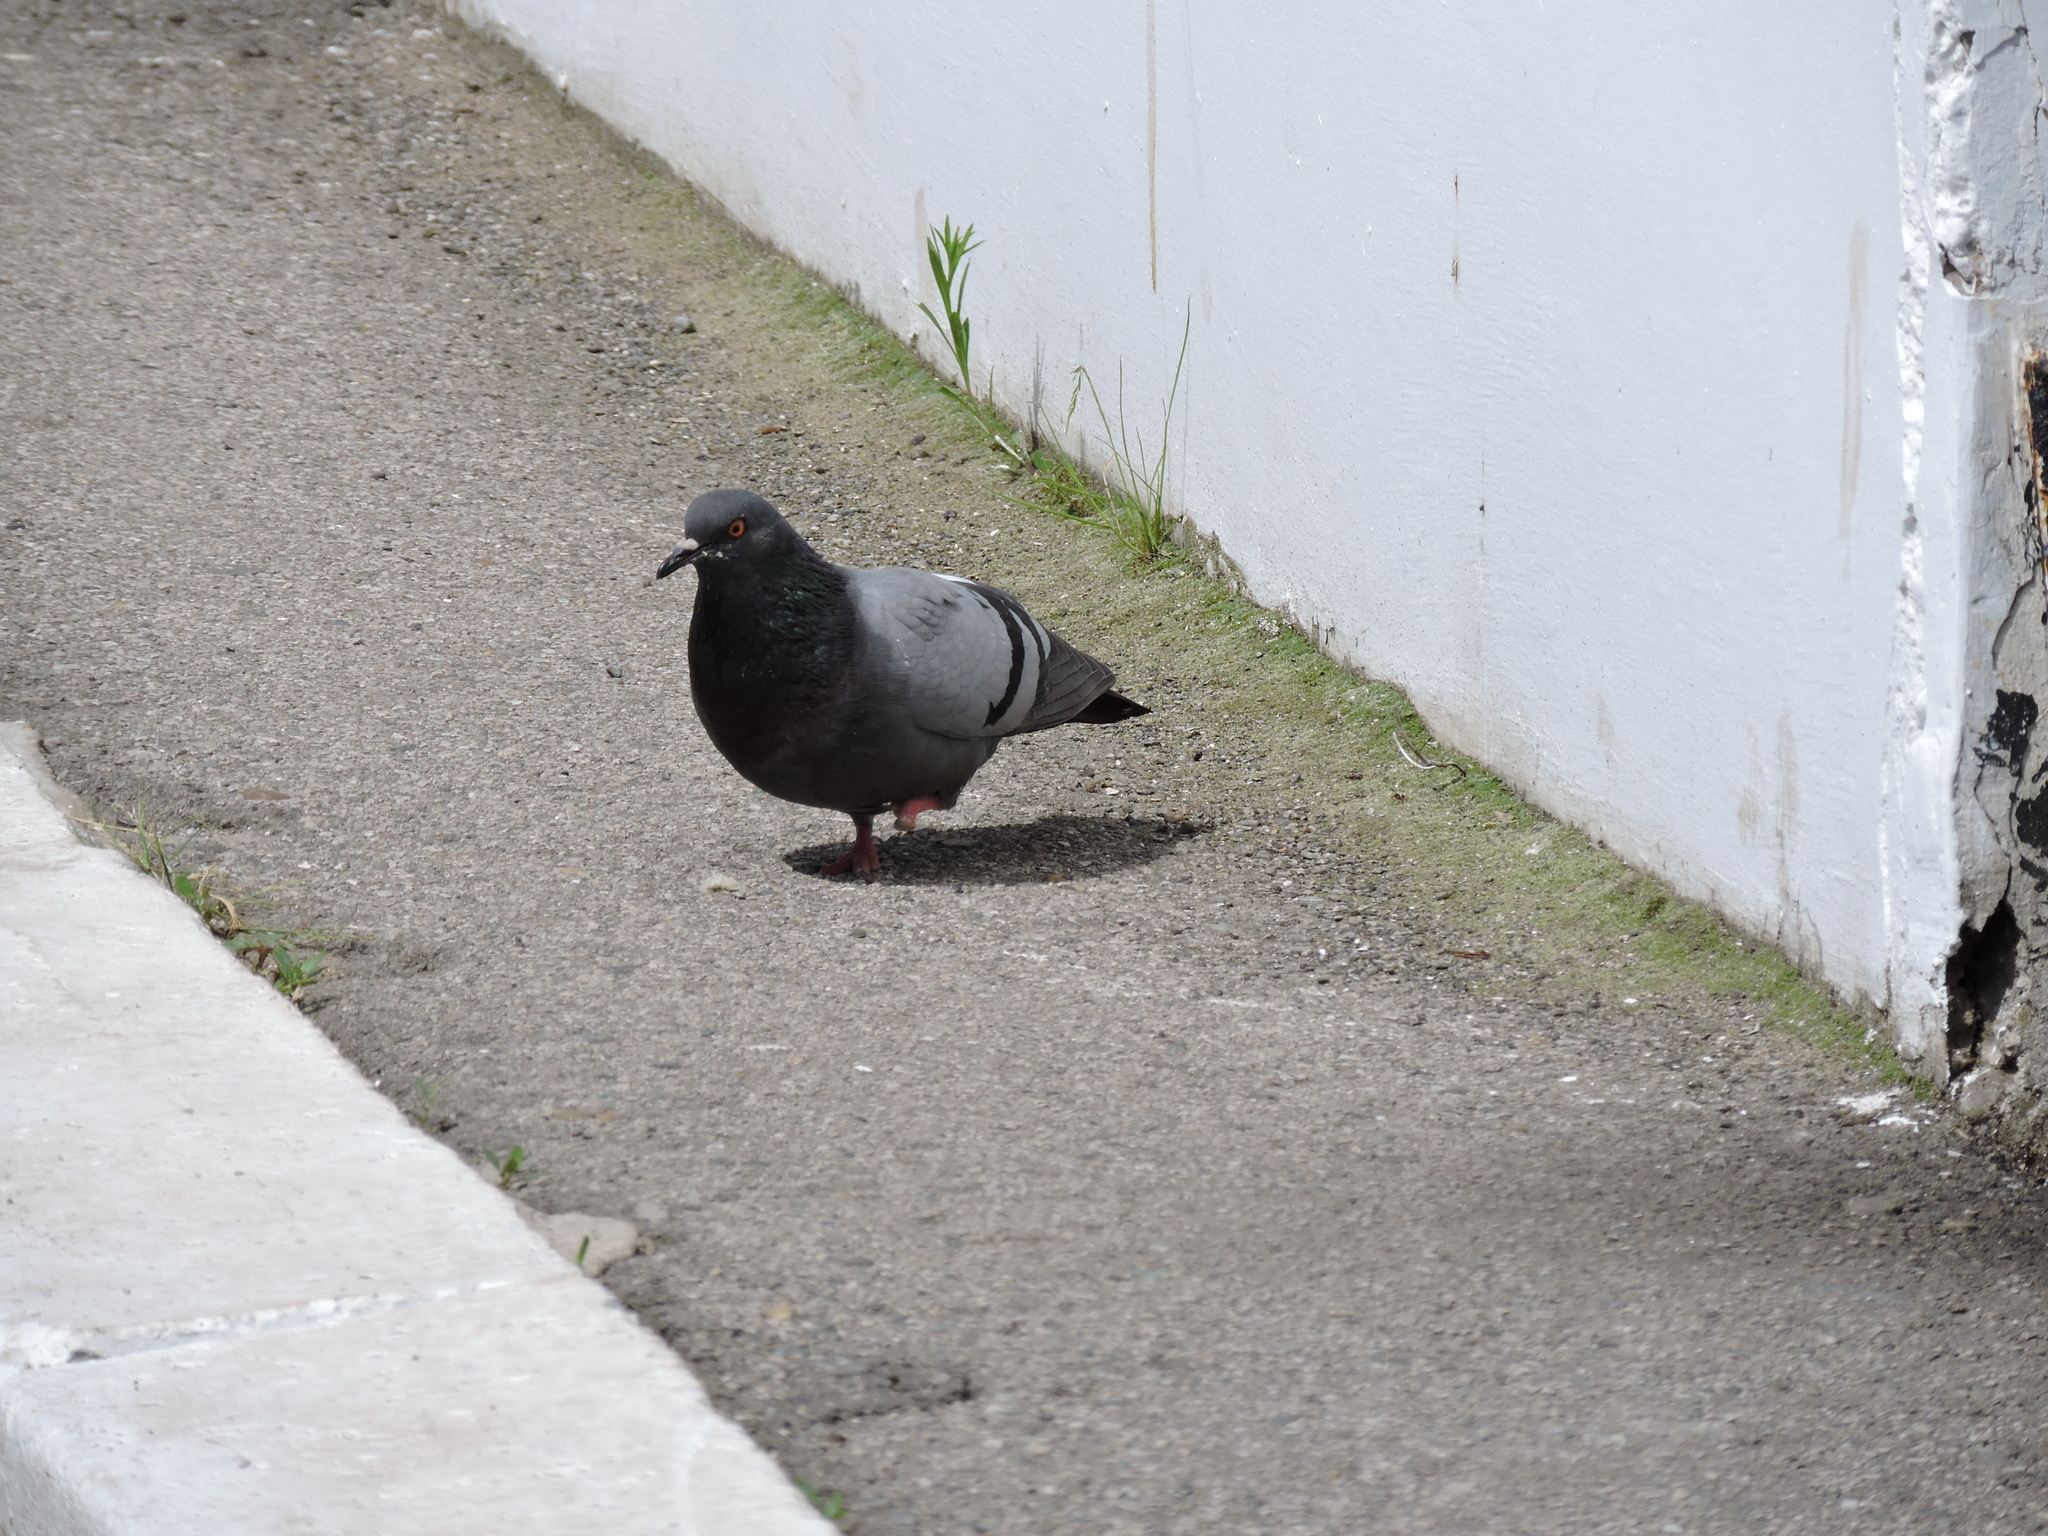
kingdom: Animalia
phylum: Chordata
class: Aves
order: Columbiformes
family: Columbidae
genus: Columba
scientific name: Columba livia
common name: Rock pigeon
